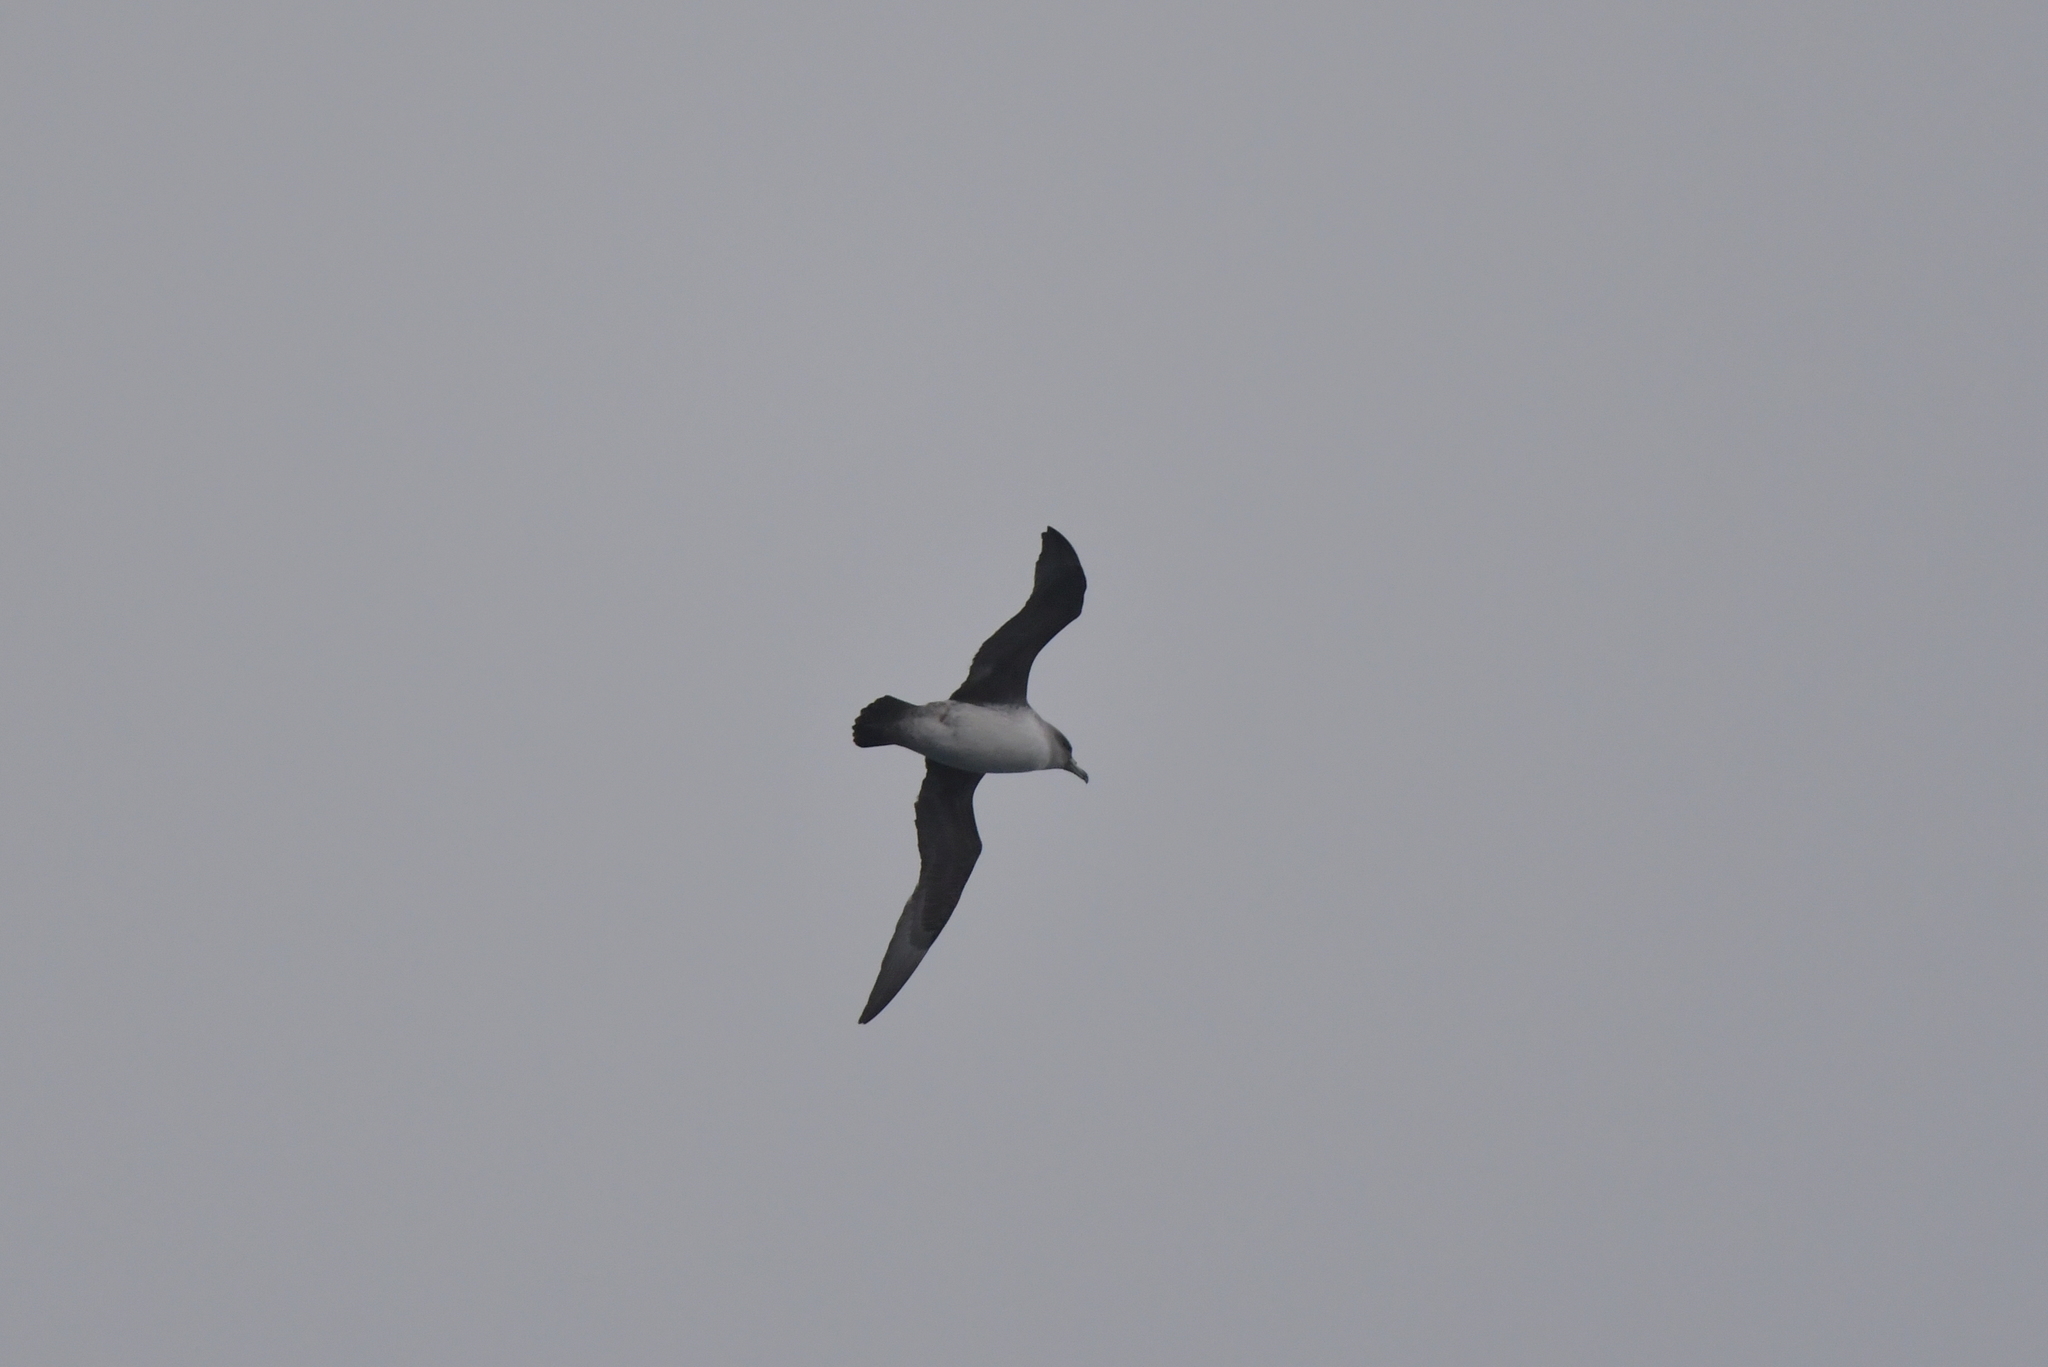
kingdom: Animalia
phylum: Chordata
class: Aves
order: Procellariiformes
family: Procellariidae
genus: Procellaria
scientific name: Procellaria cinerea
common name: Grey petrel
